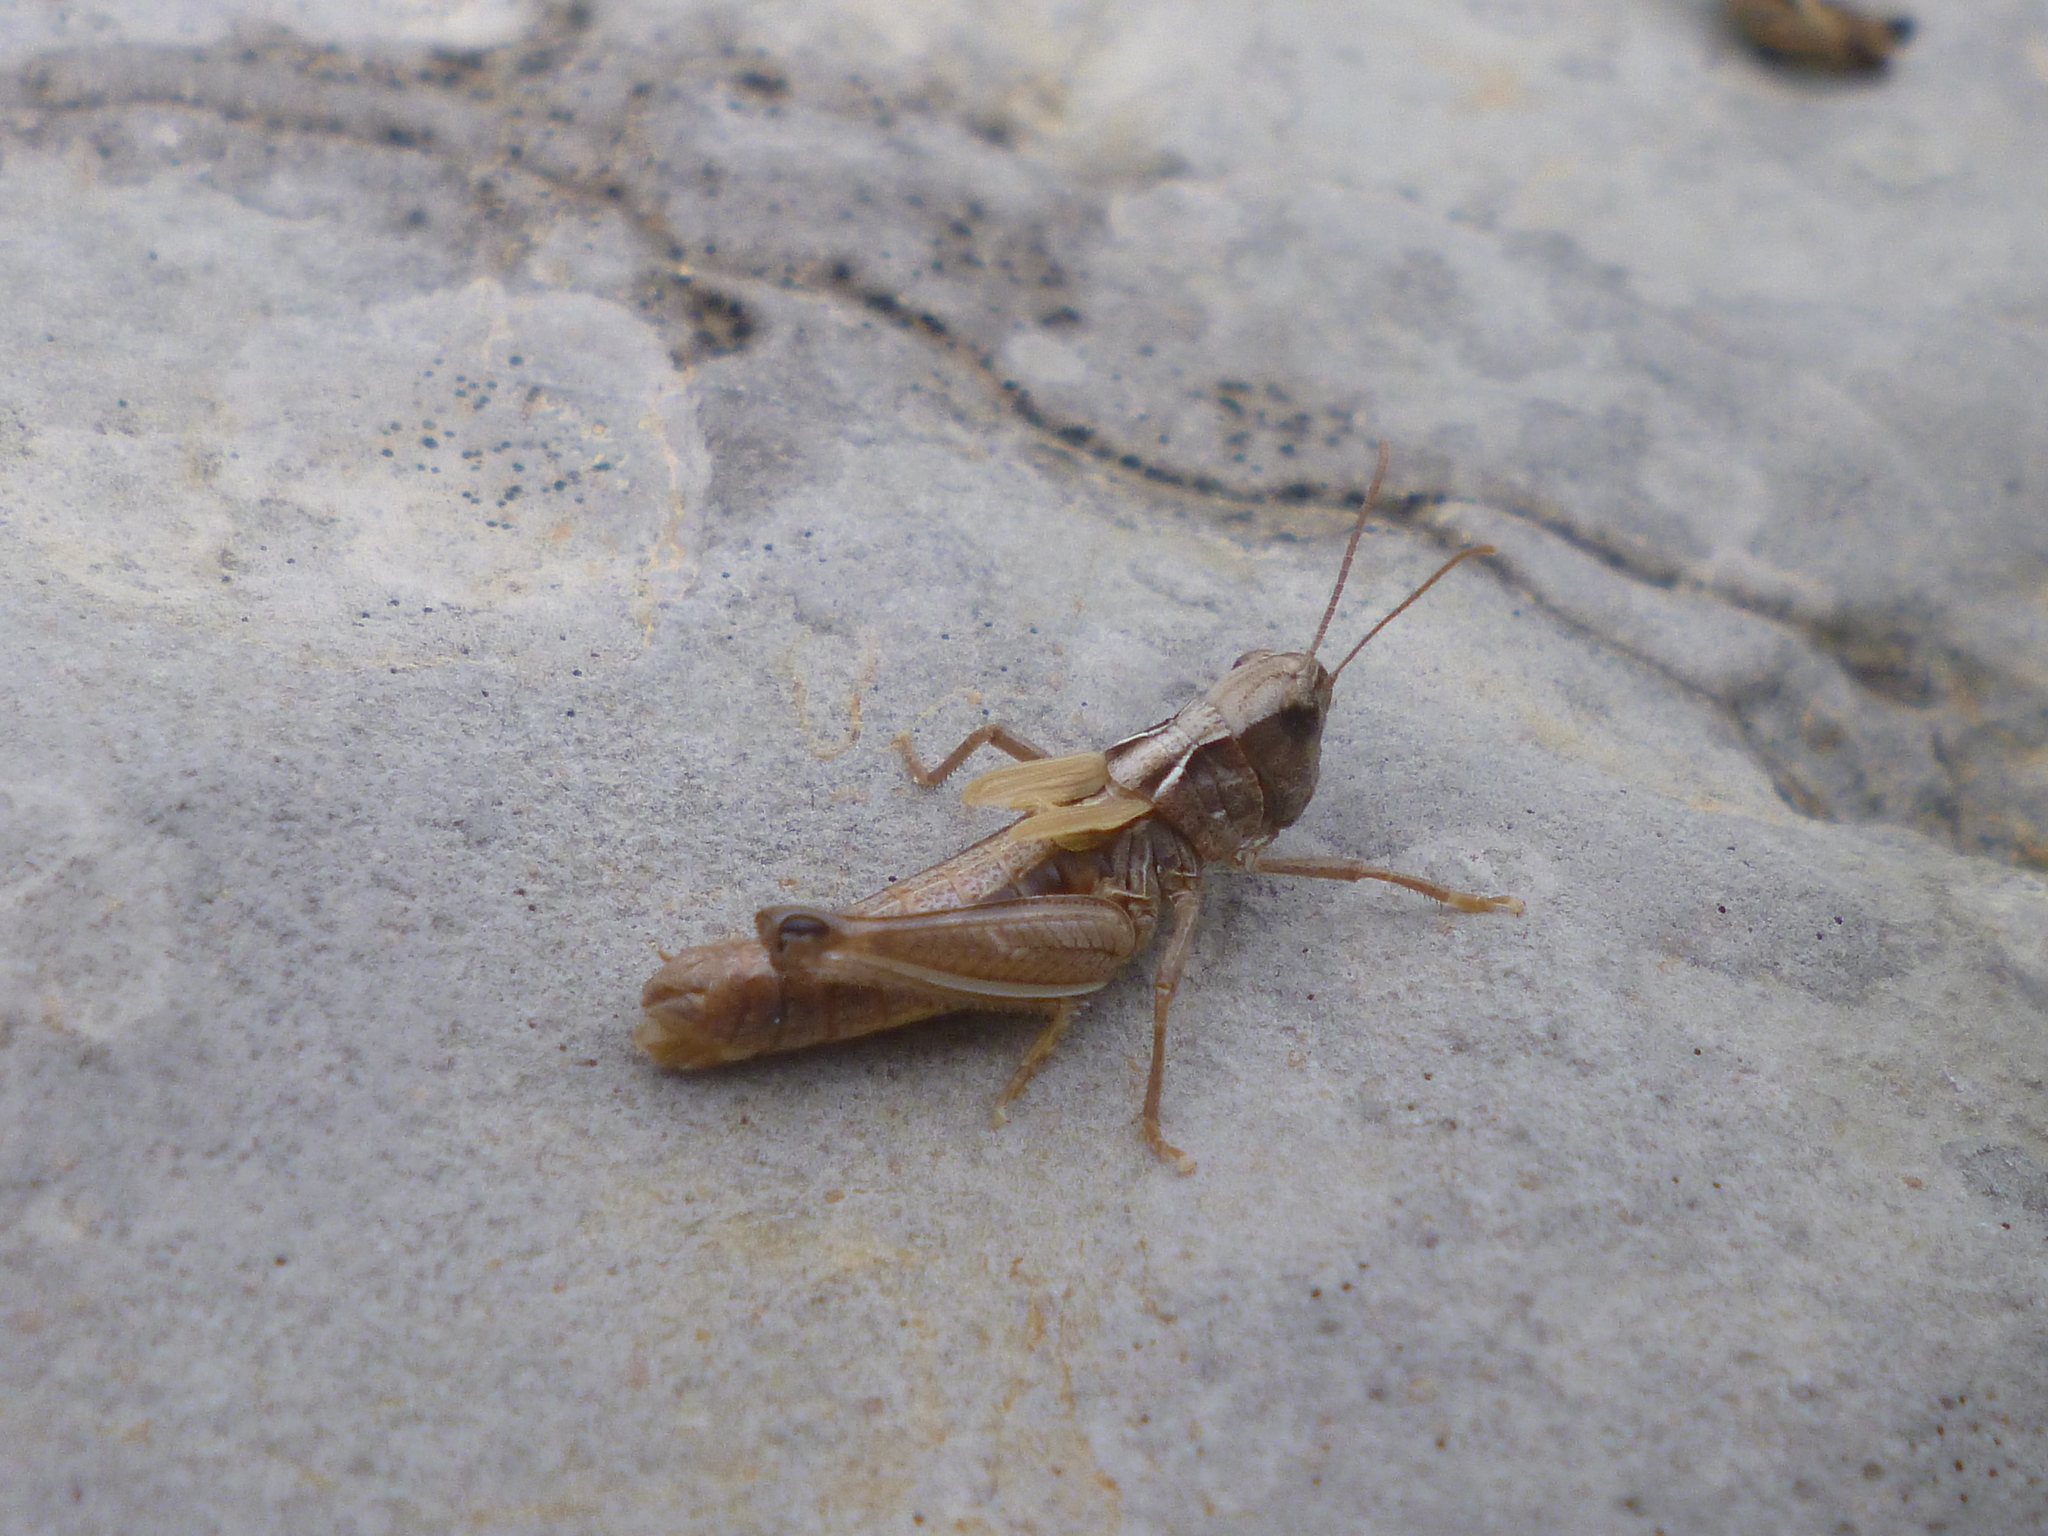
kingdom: Animalia
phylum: Arthropoda
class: Insecta
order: Orthoptera
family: Acrididae
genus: Rammeihippus
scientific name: Rammeihippus dinaricus
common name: Dinarian grasshopper
